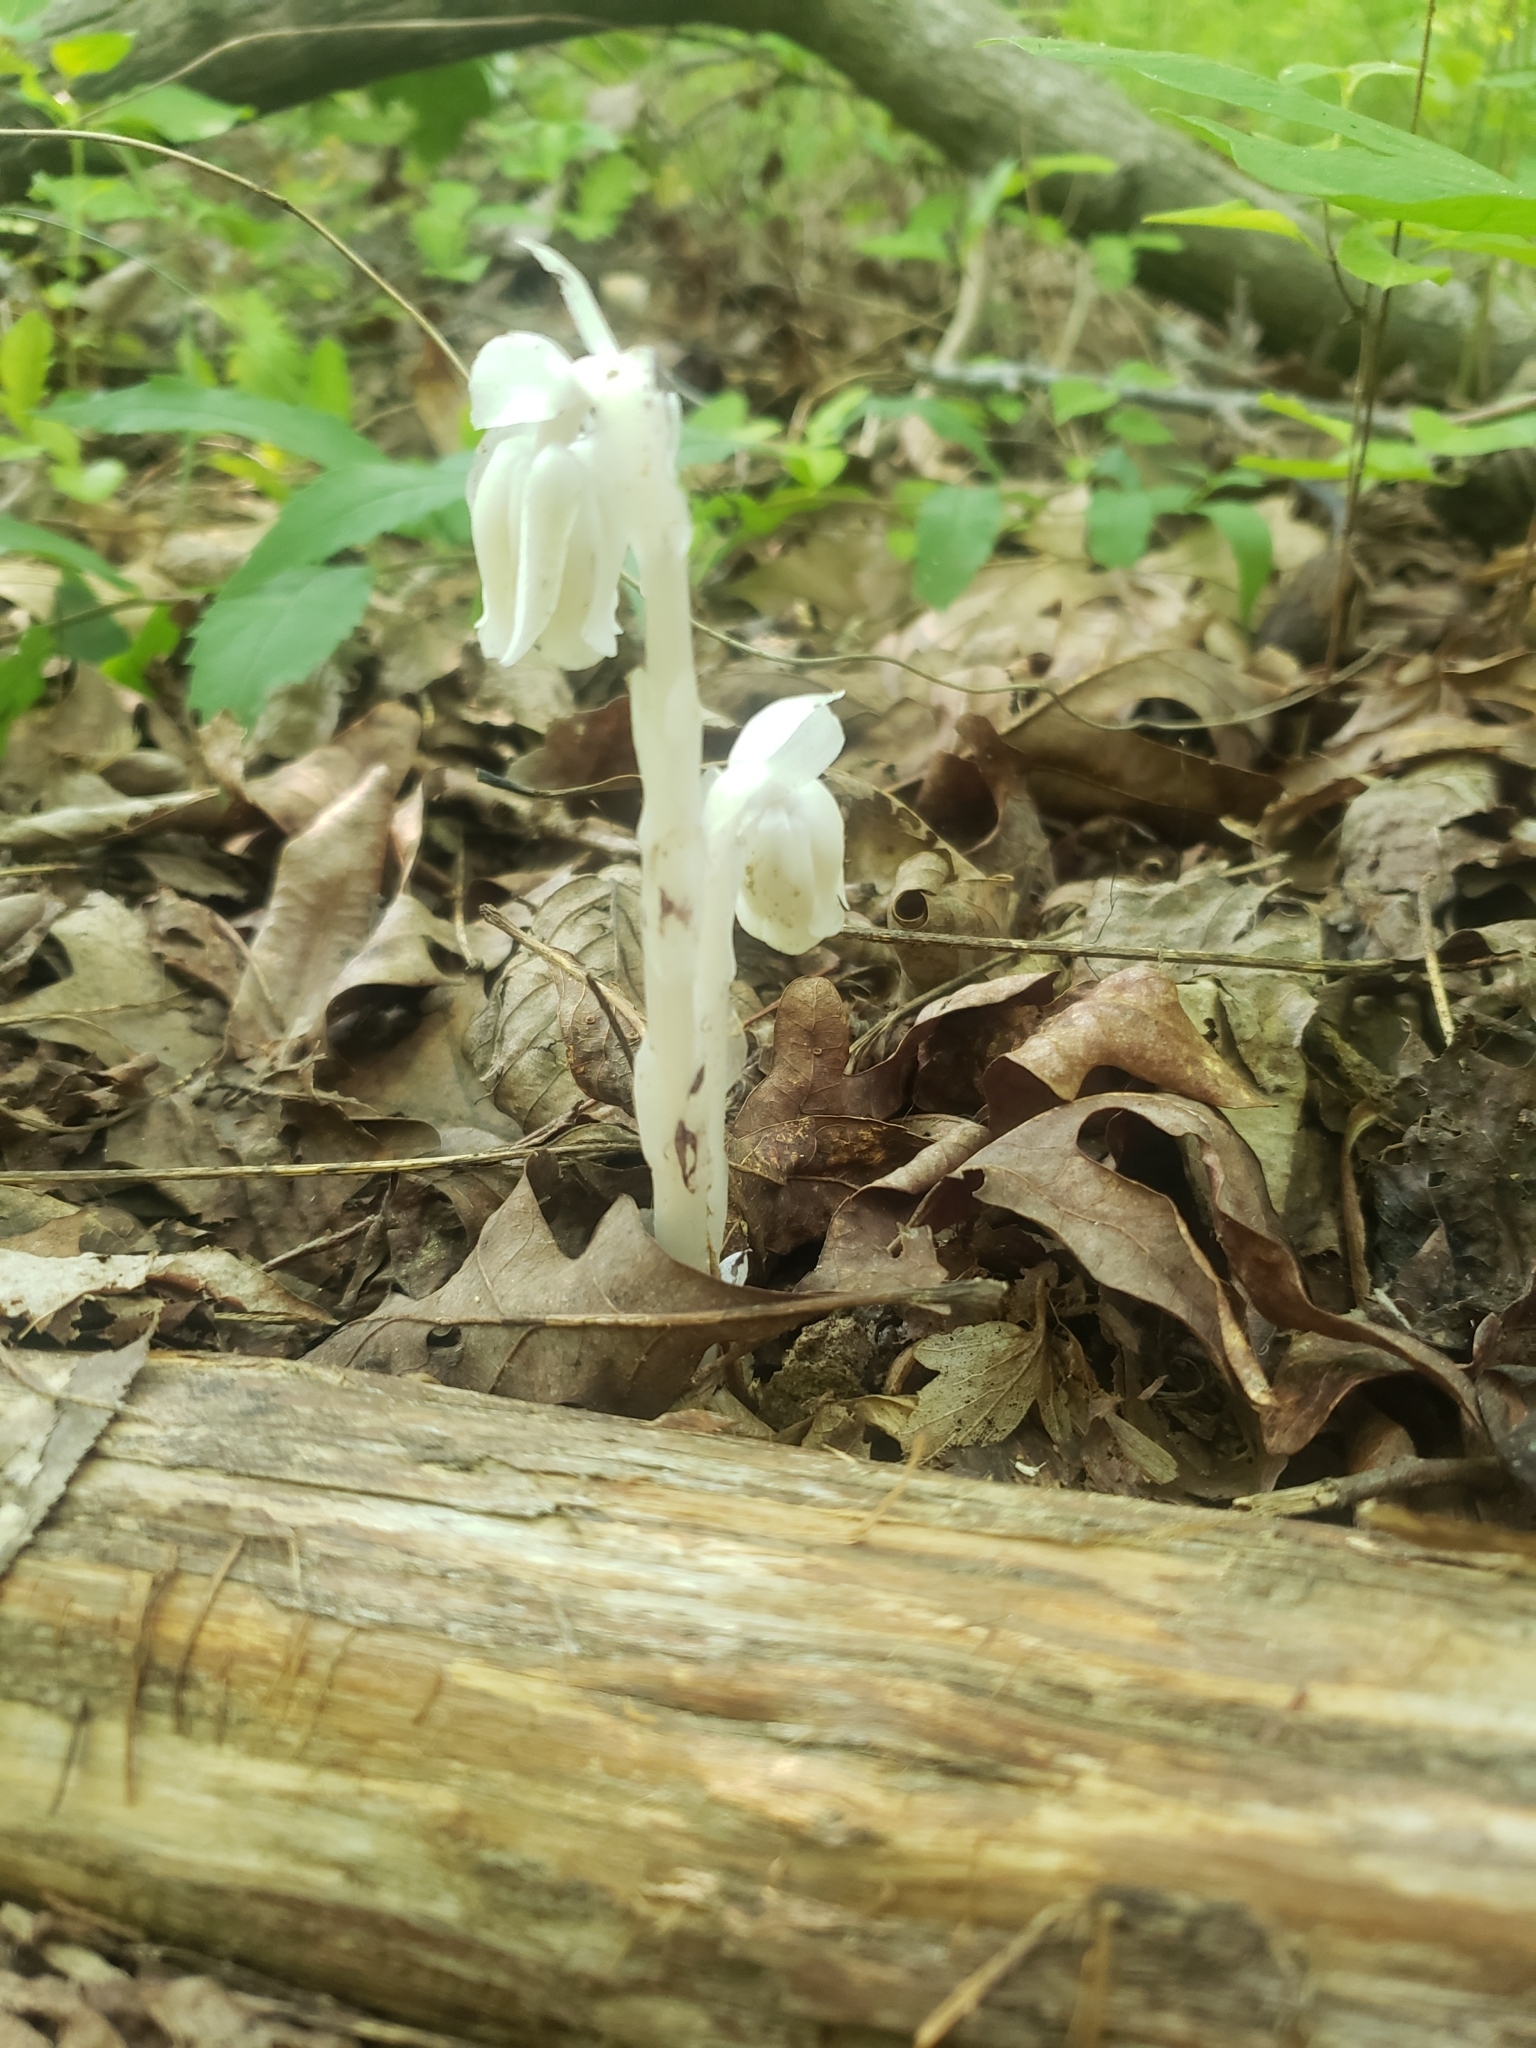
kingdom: Plantae
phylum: Tracheophyta
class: Magnoliopsida
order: Ericales
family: Ericaceae
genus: Monotropa
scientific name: Monotropa uniflora
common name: Convulsion root
